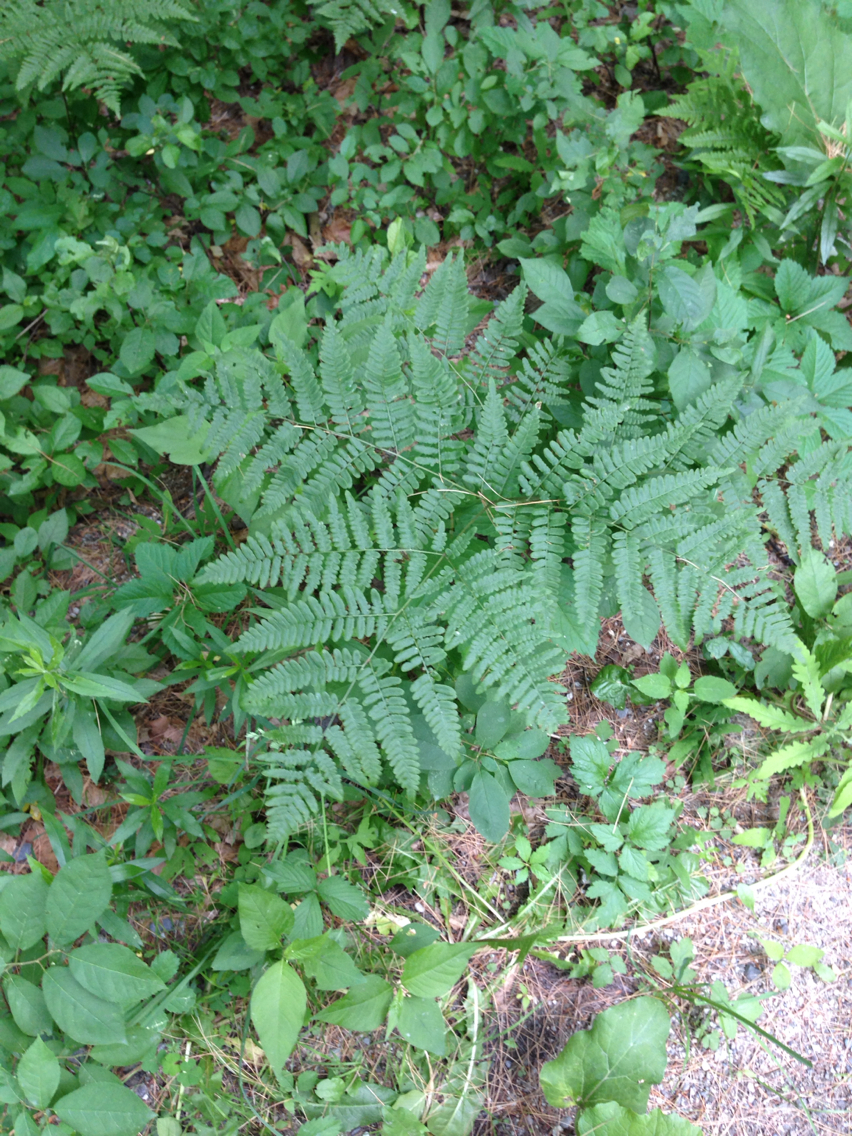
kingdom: Plantae
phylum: Tracheophyta
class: Polypodiopsida
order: Polypodiales
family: Dennstaedtiaceae
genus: Pteridium
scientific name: Pteridium aquilinum
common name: Bracken
